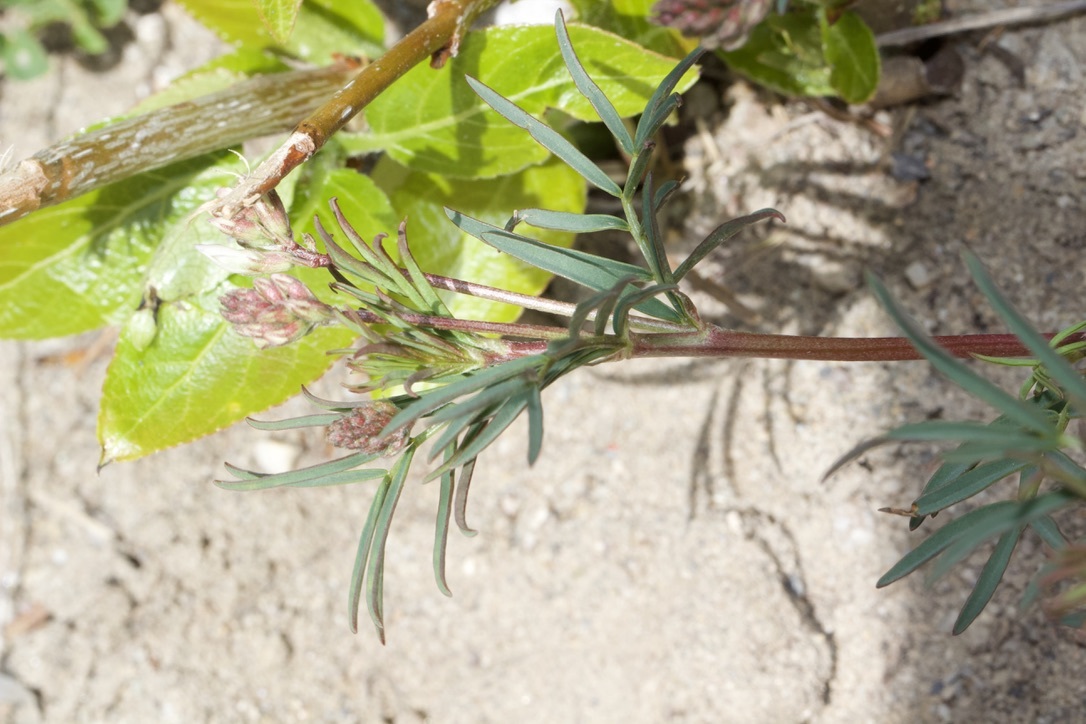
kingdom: Plantae
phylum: Tracheophyta
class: Magnoliopsida
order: Fabales
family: Fabaceae
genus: Astragalus
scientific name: Astragalus australis
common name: Indian milk-vetch
